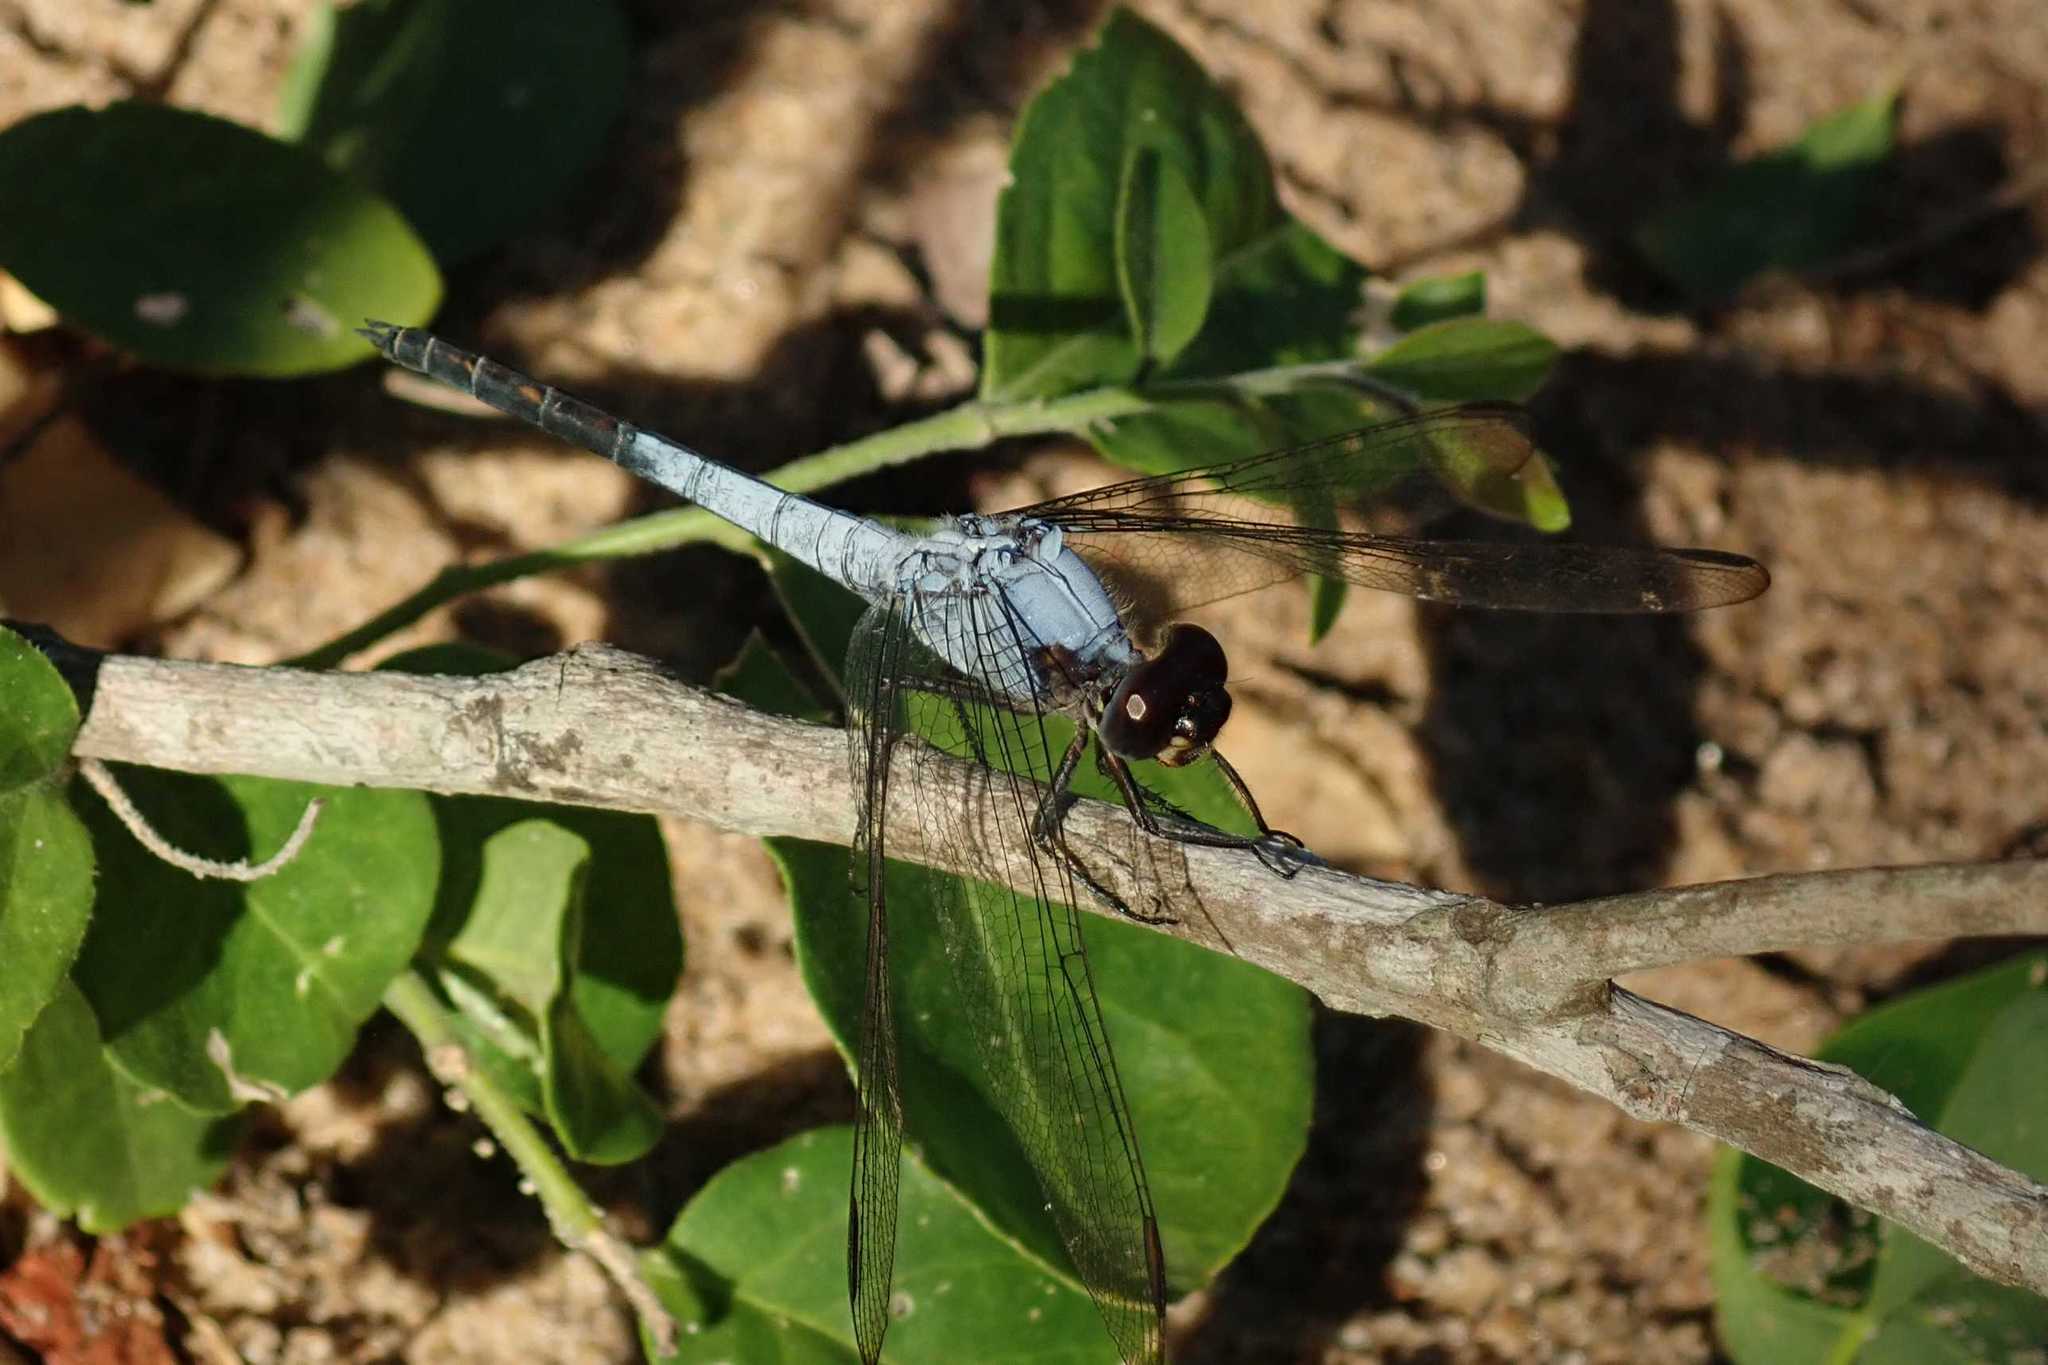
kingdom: Animalia
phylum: Arthropoda
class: Insecta
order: Odonata
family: Libellulidae
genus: Nesciothemis
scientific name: Nesciothemis farinosa
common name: Eastern blacktail
